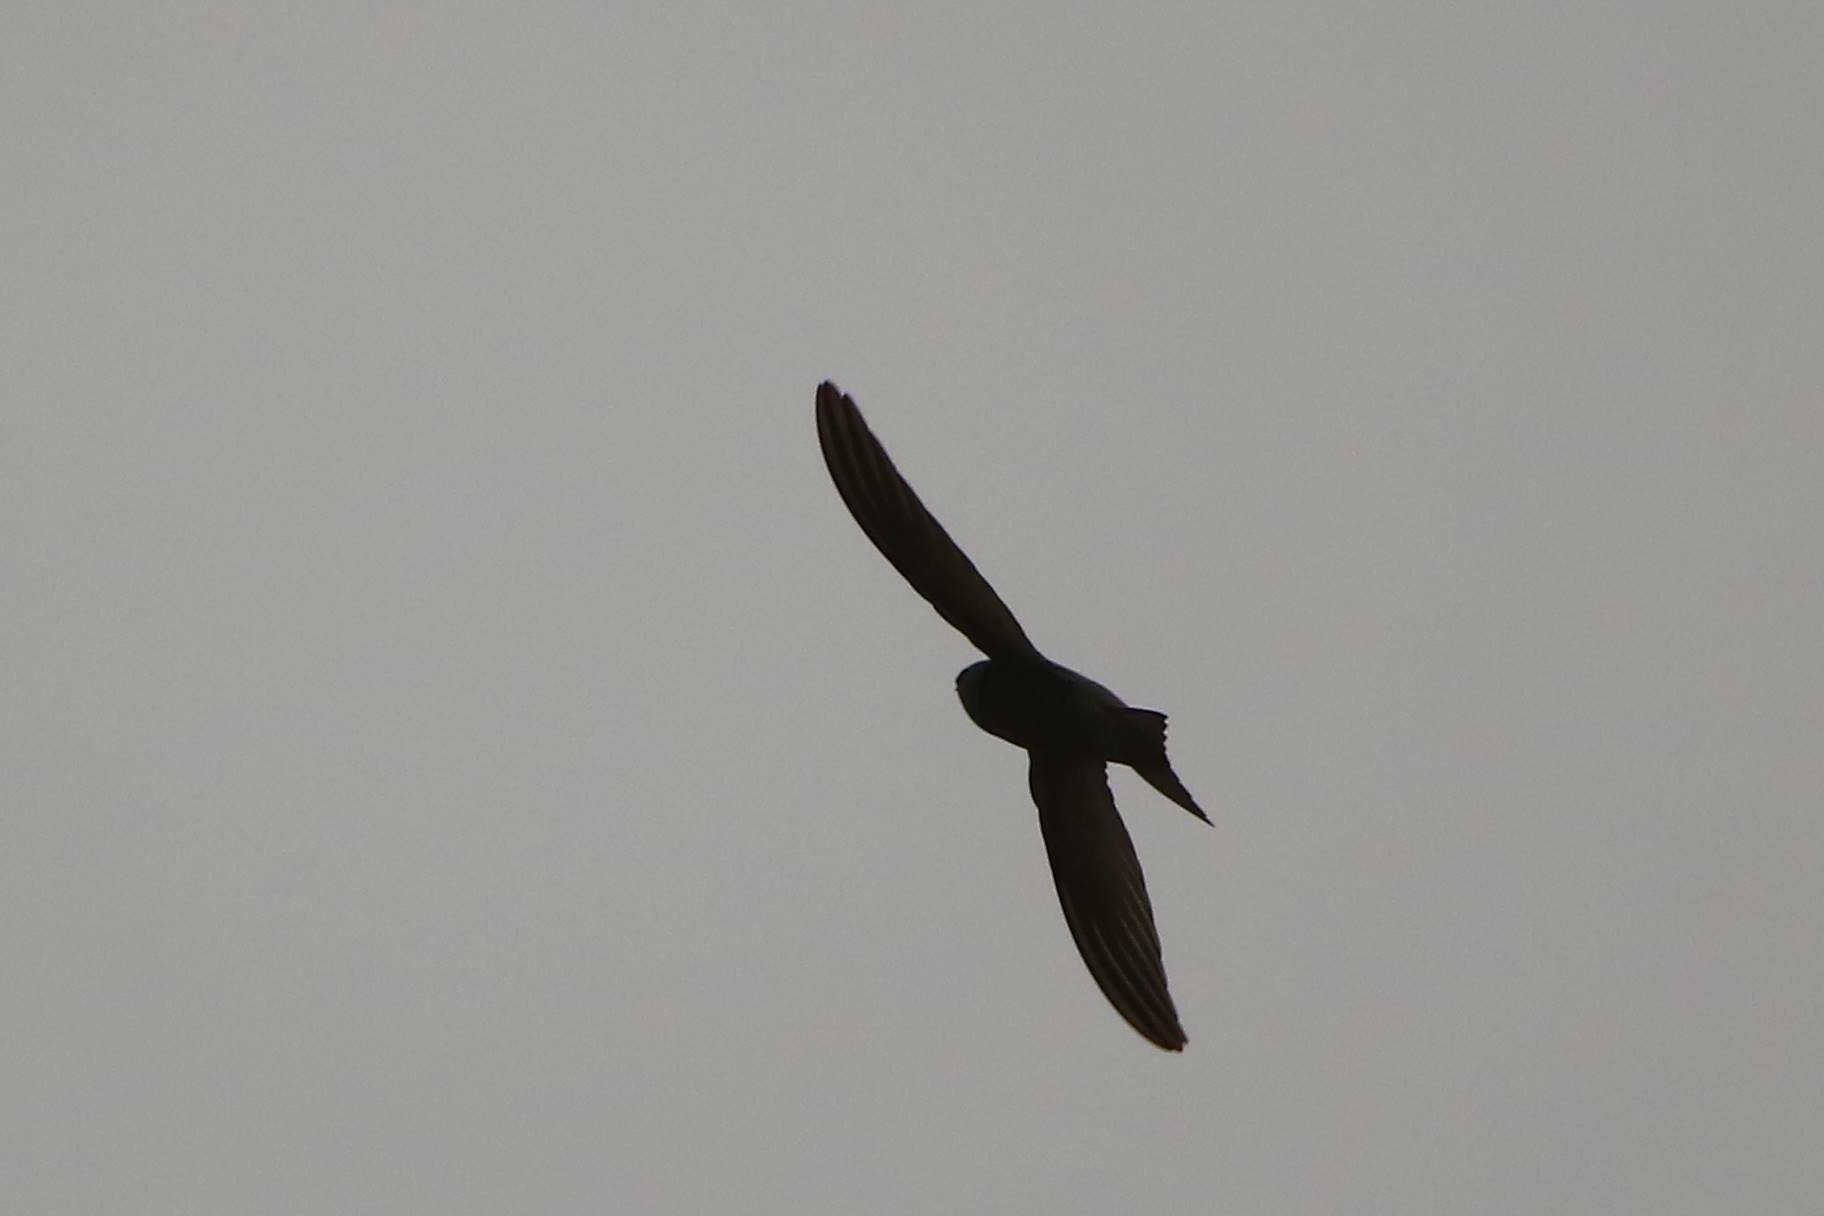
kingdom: Animalia
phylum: Chordata
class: Aves
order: Apodiformes
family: Apodidae
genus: Apus
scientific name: Apus apus
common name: Common swift
